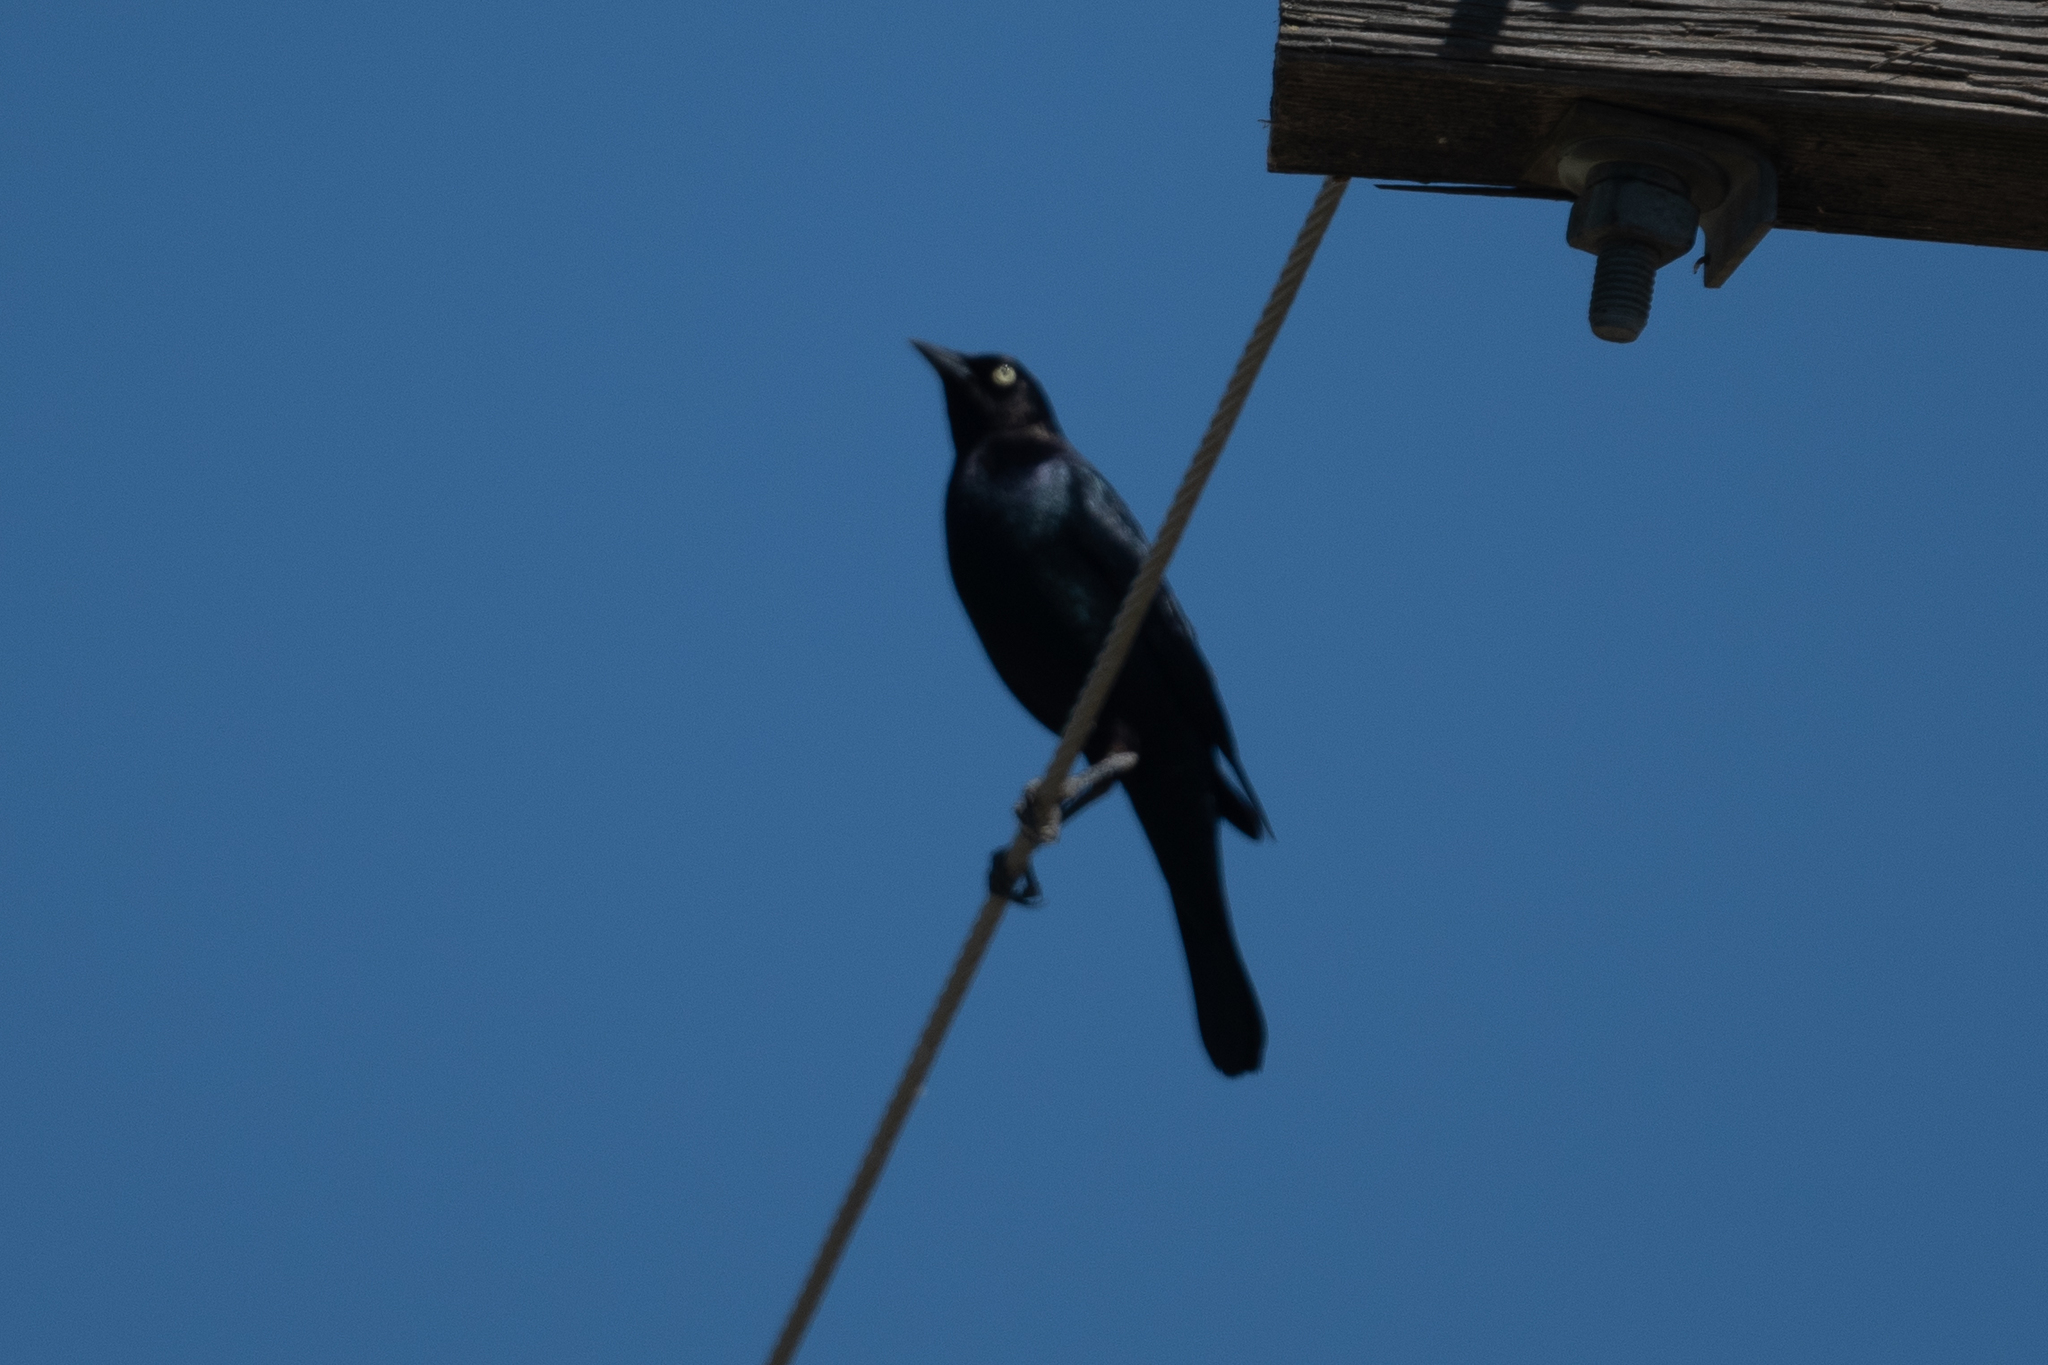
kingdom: Animalia
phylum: Chordata
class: Aves
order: Passeriformes
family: Icteridae
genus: Euphagus
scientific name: Euphagus cyanocephalus
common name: Brewer's blackbird
